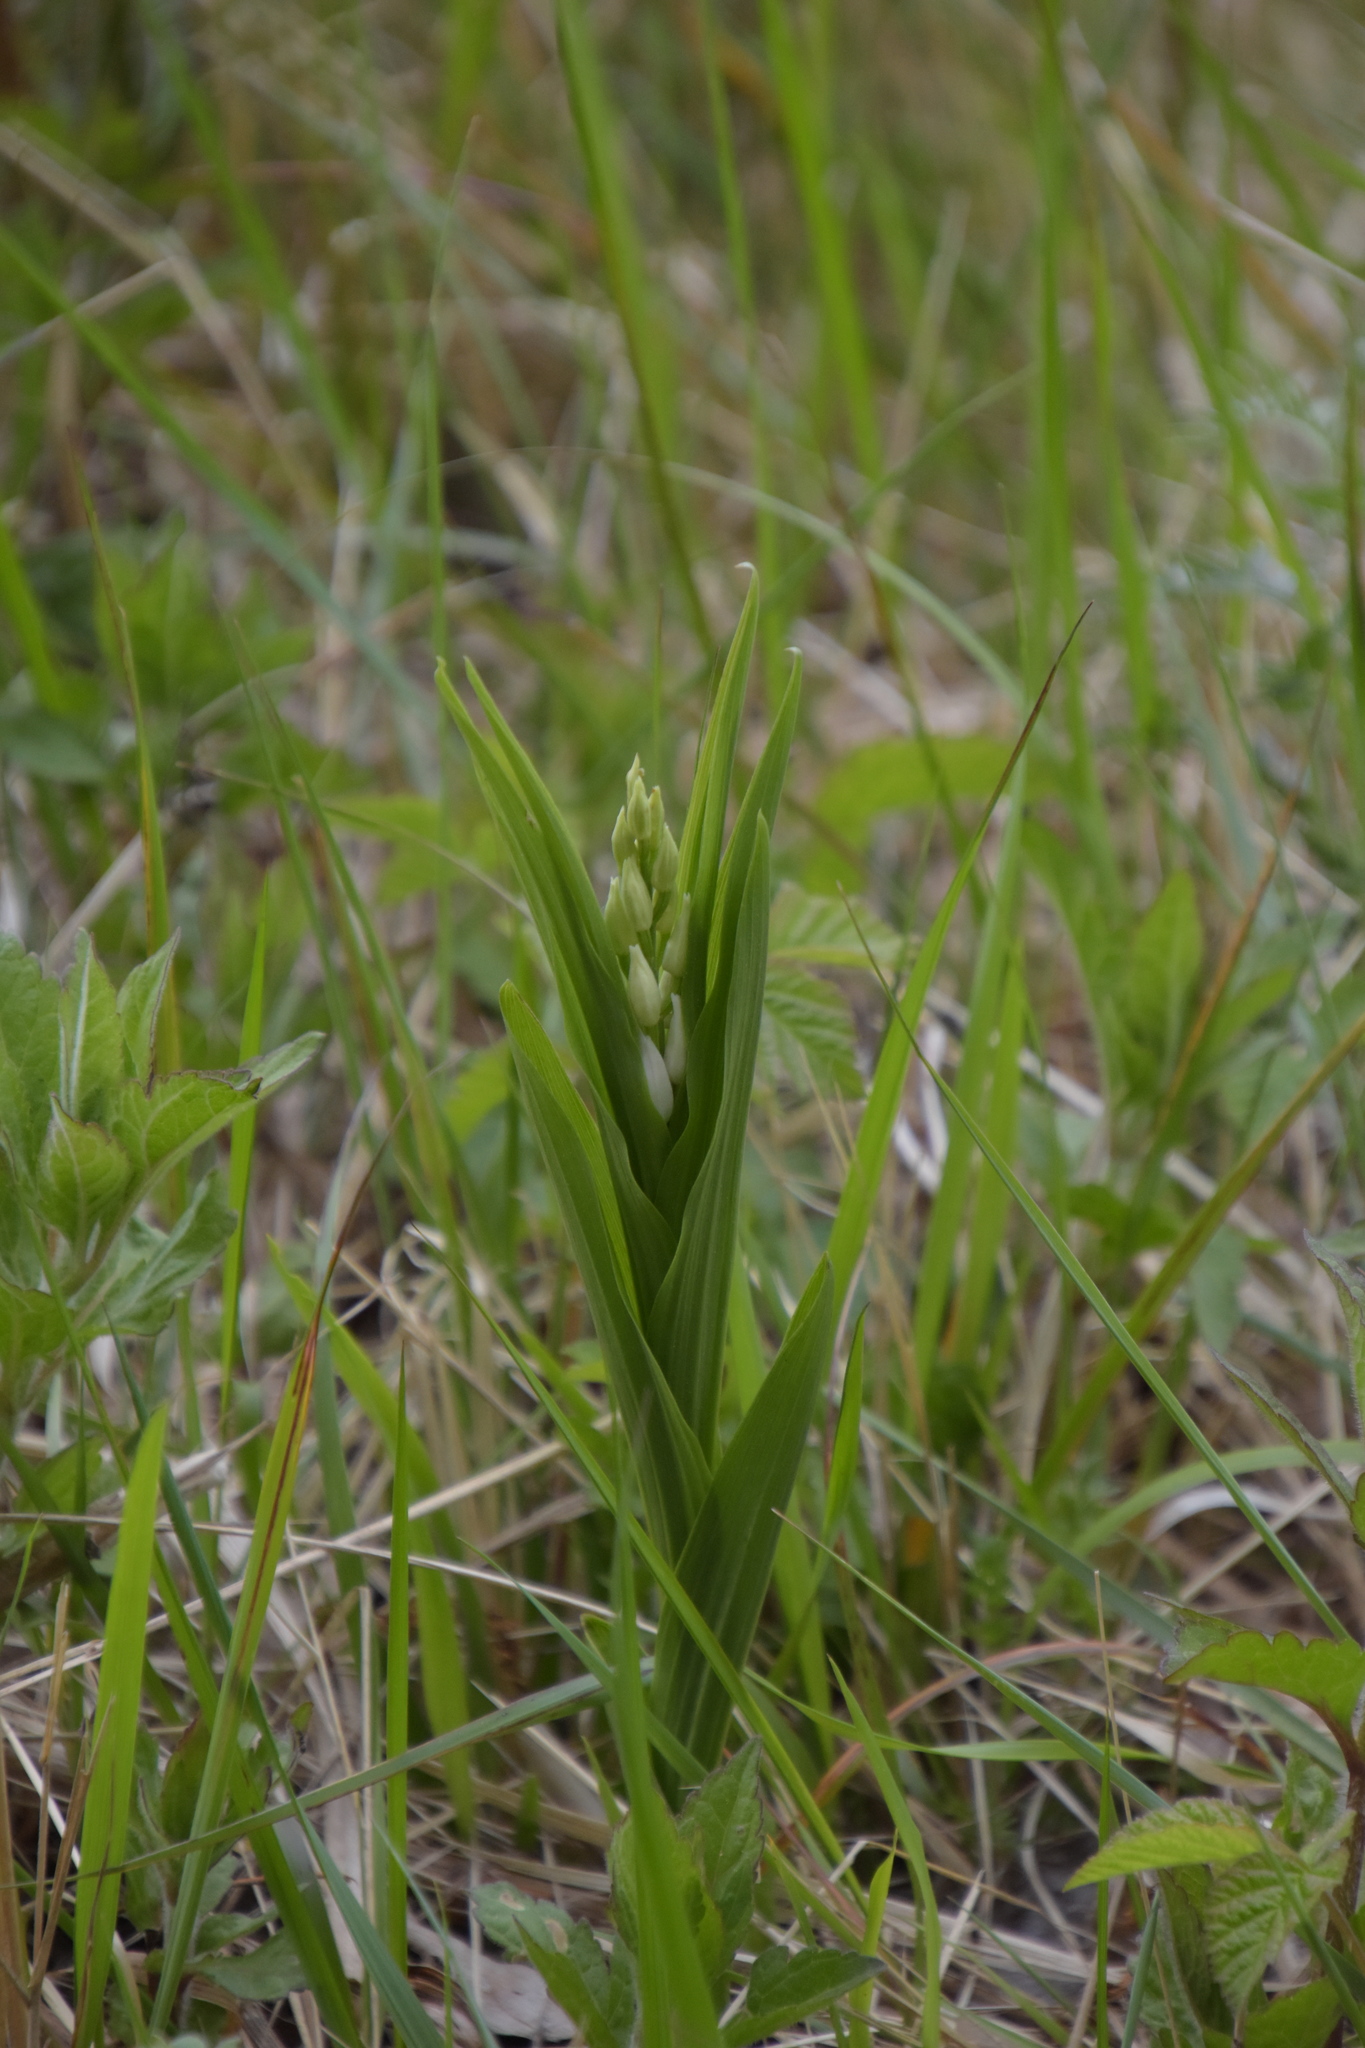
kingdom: Plantae
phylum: Tracheophyta
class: Liliopsida
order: Asparagales
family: Orchidaceae
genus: Cephalanthera
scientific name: Cephalanthera longifolia
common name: Narrow-leaved helleborine
